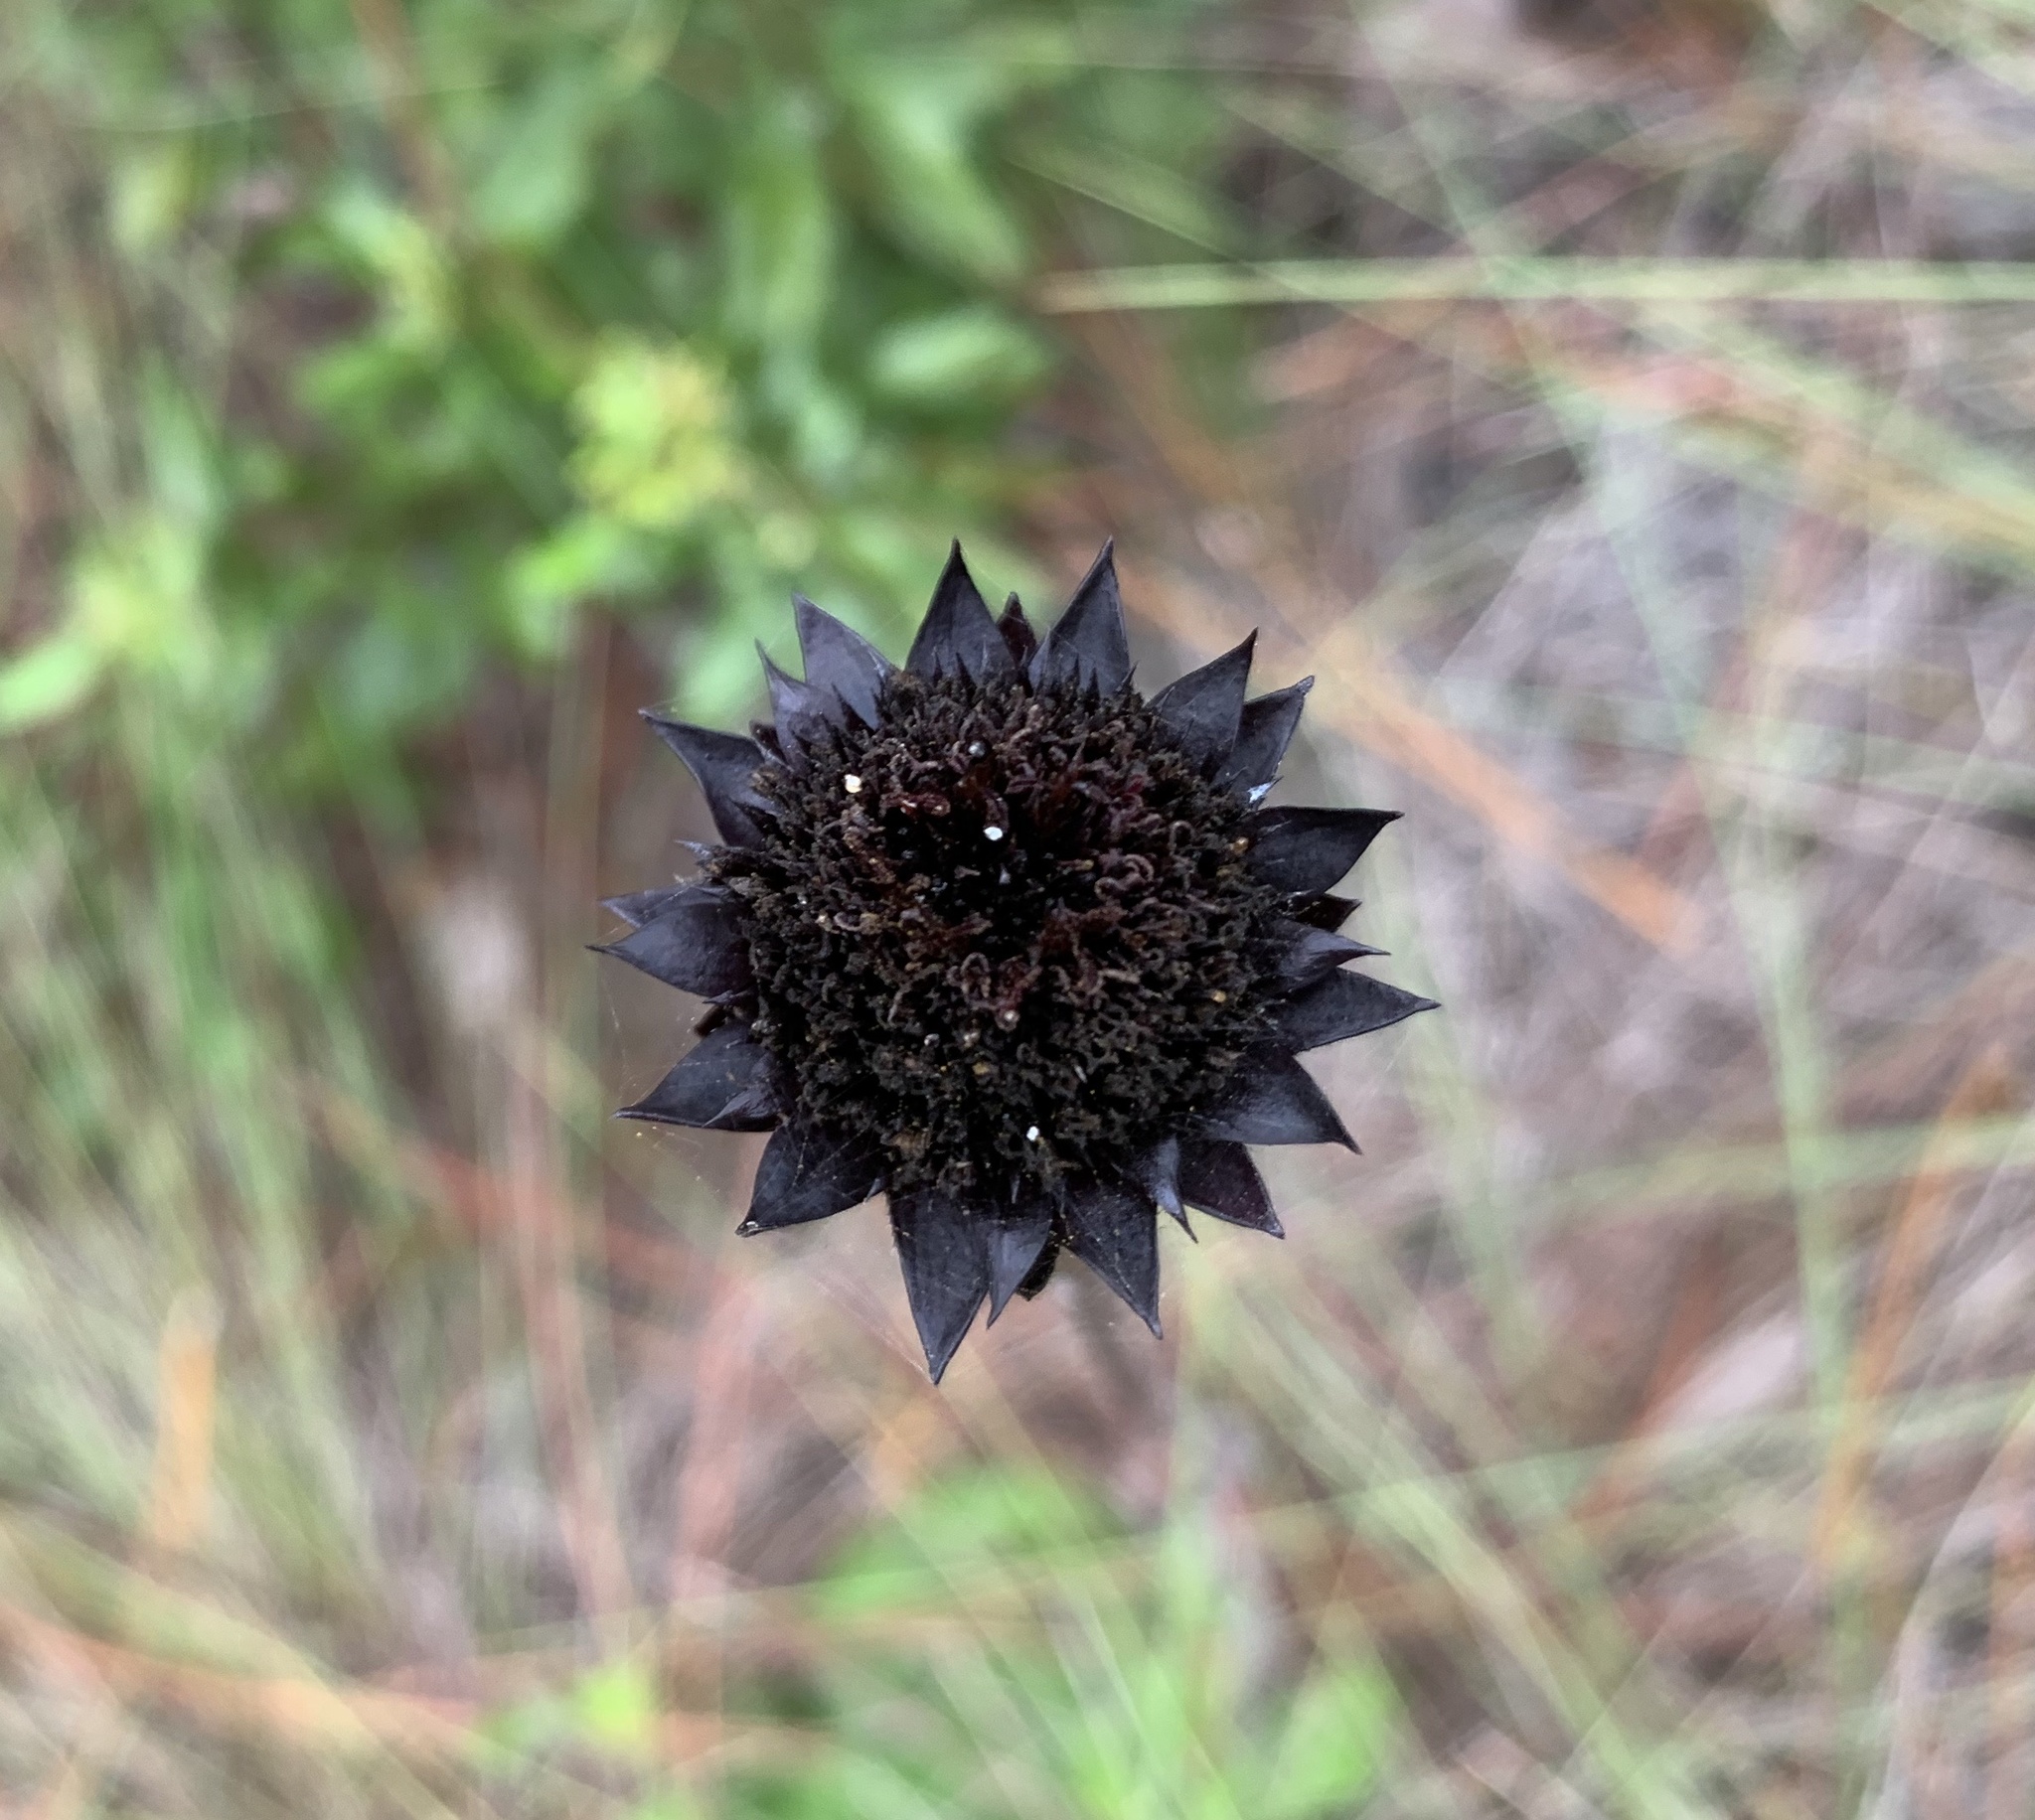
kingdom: Plantae
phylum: Tracheophyta
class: Magnoliopsida
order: Asterales
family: Asteraceae
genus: Helianthus
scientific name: Helianthus radula
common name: Pineland sunflower
